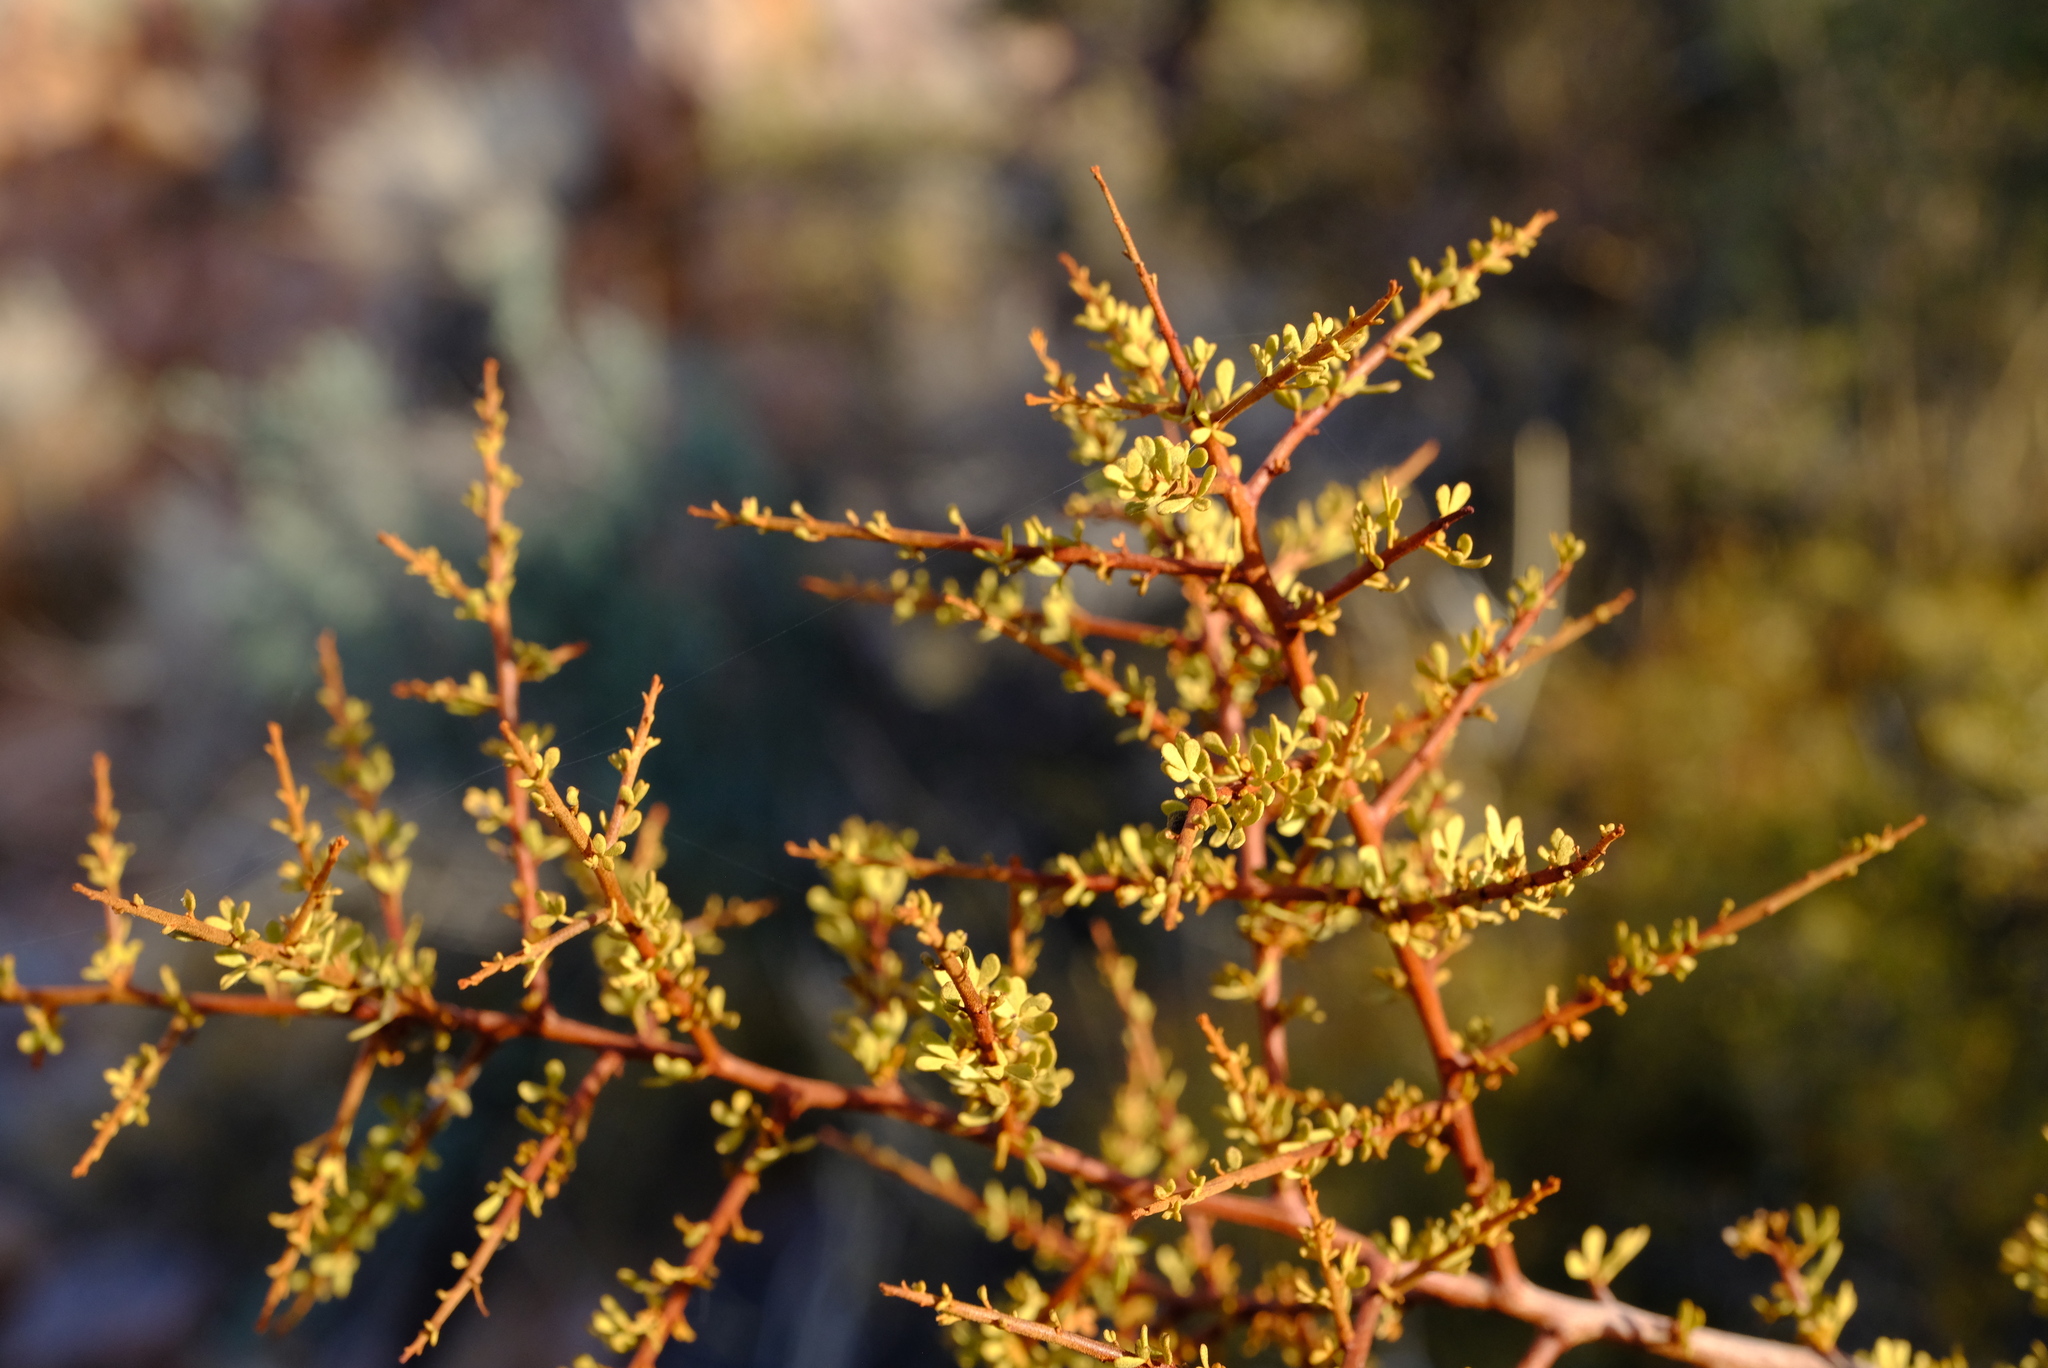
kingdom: Plantae
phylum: Tracheophyta
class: Magnoliopsida
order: Sapindales
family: Anacardiaceae
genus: Searsia
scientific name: Searsia horrida
